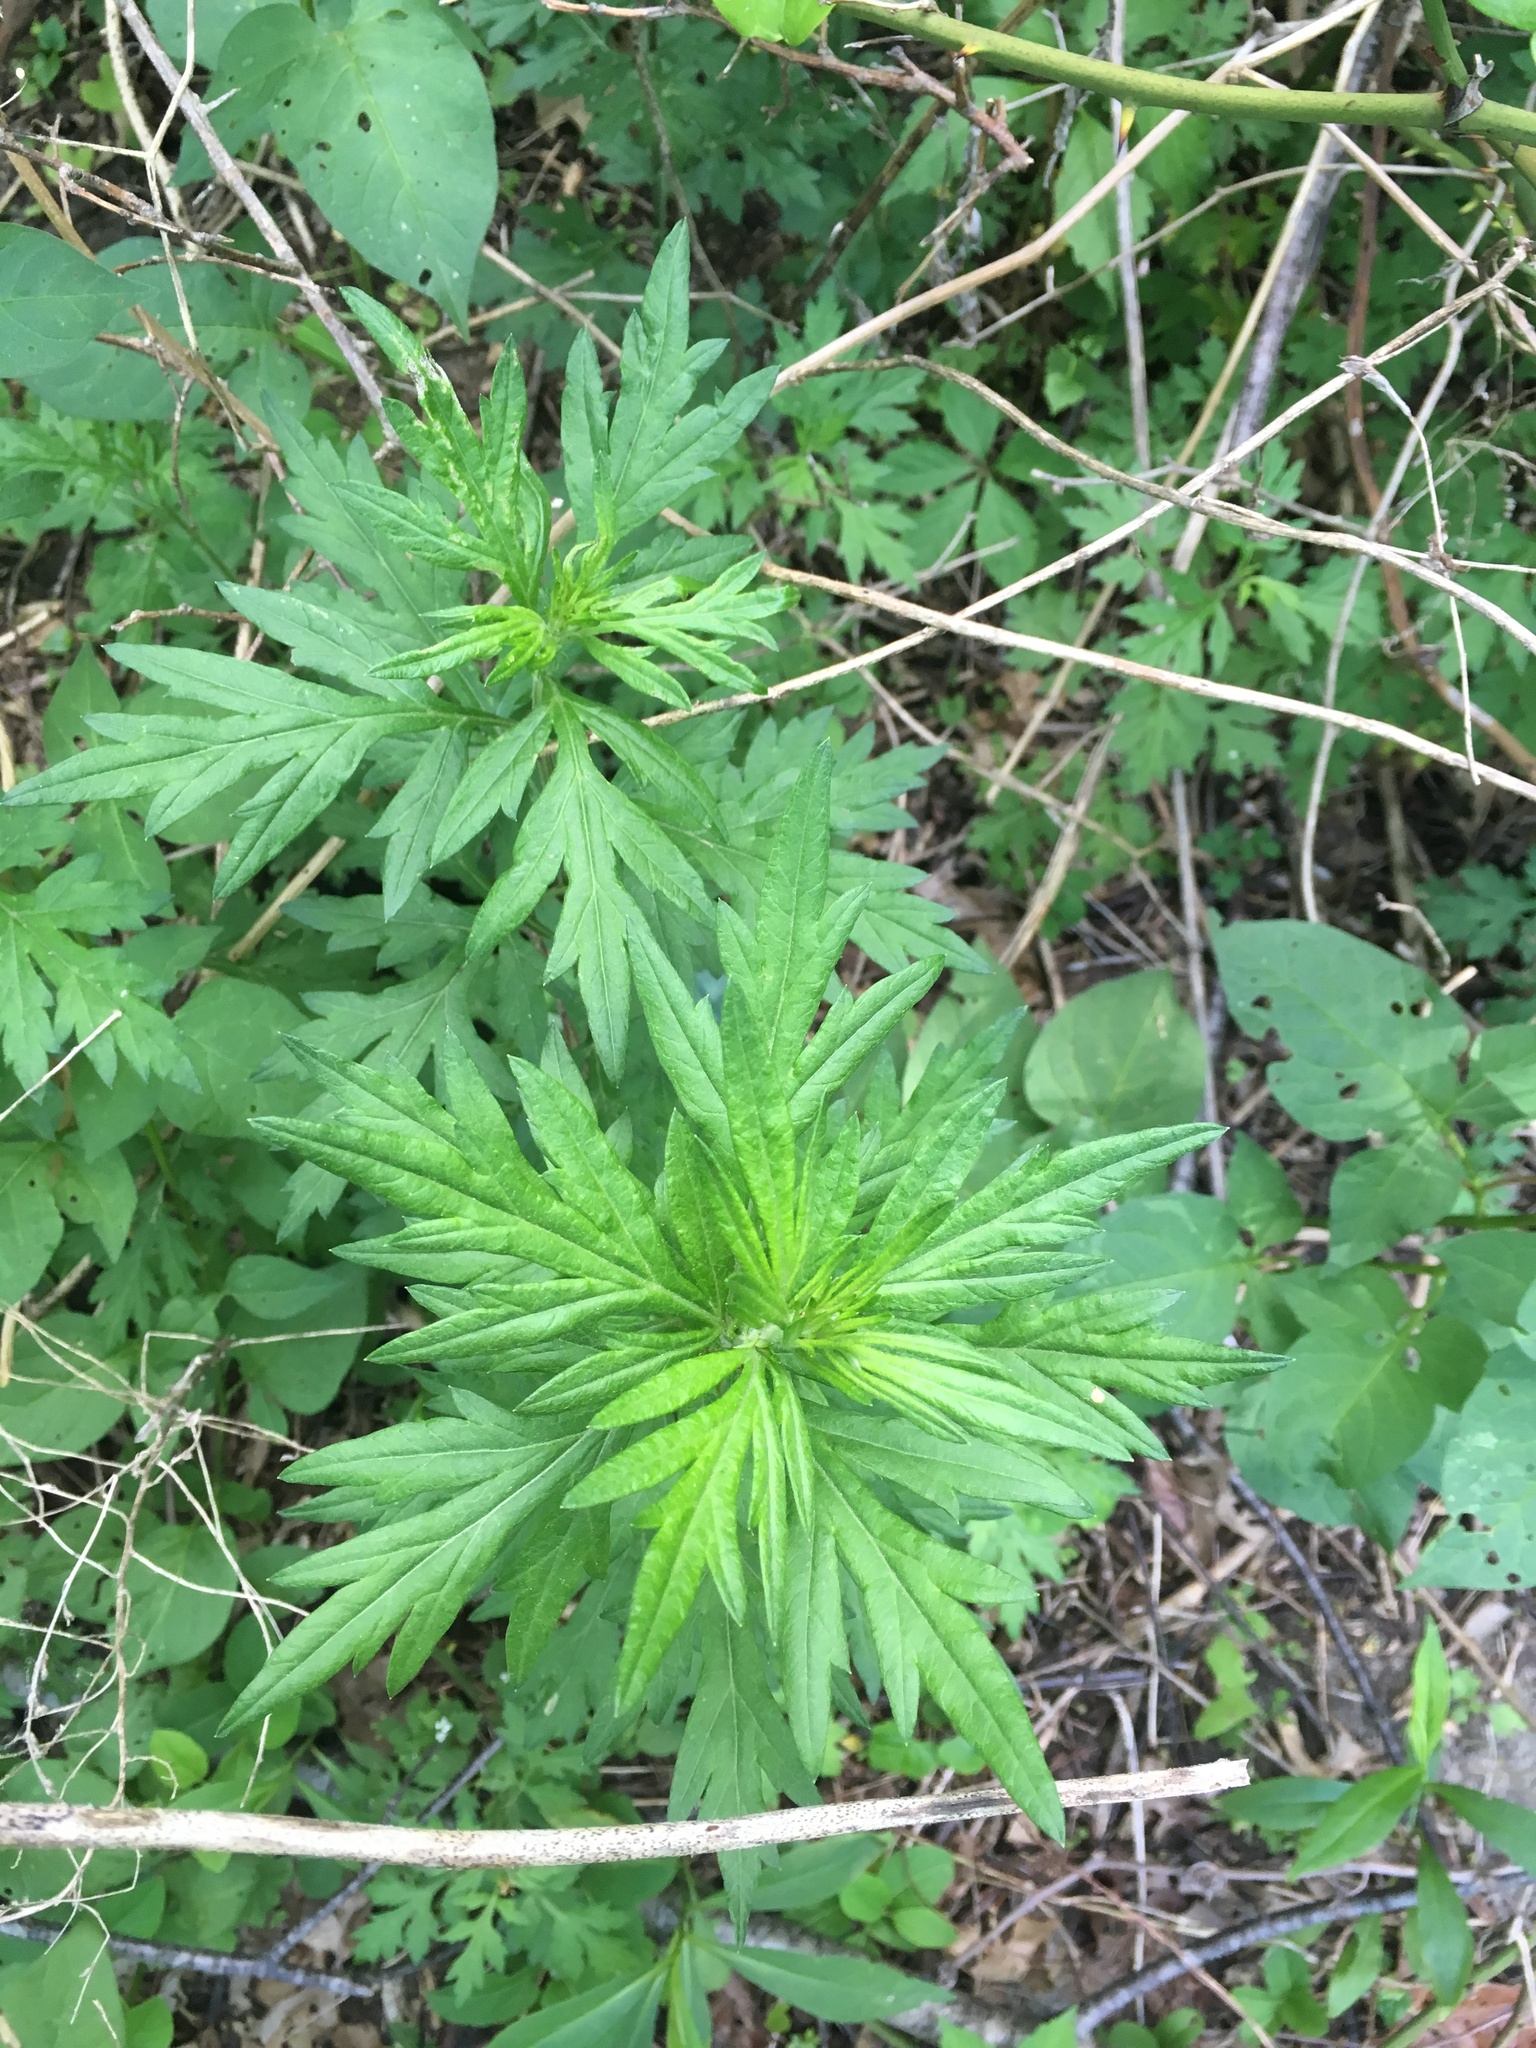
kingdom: Plantae
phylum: Tracheophyta
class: Magnoliopsida
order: Asterales
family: Asteraceae
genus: Artemisia
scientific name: Artemisia vulgaris
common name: Mugwort
